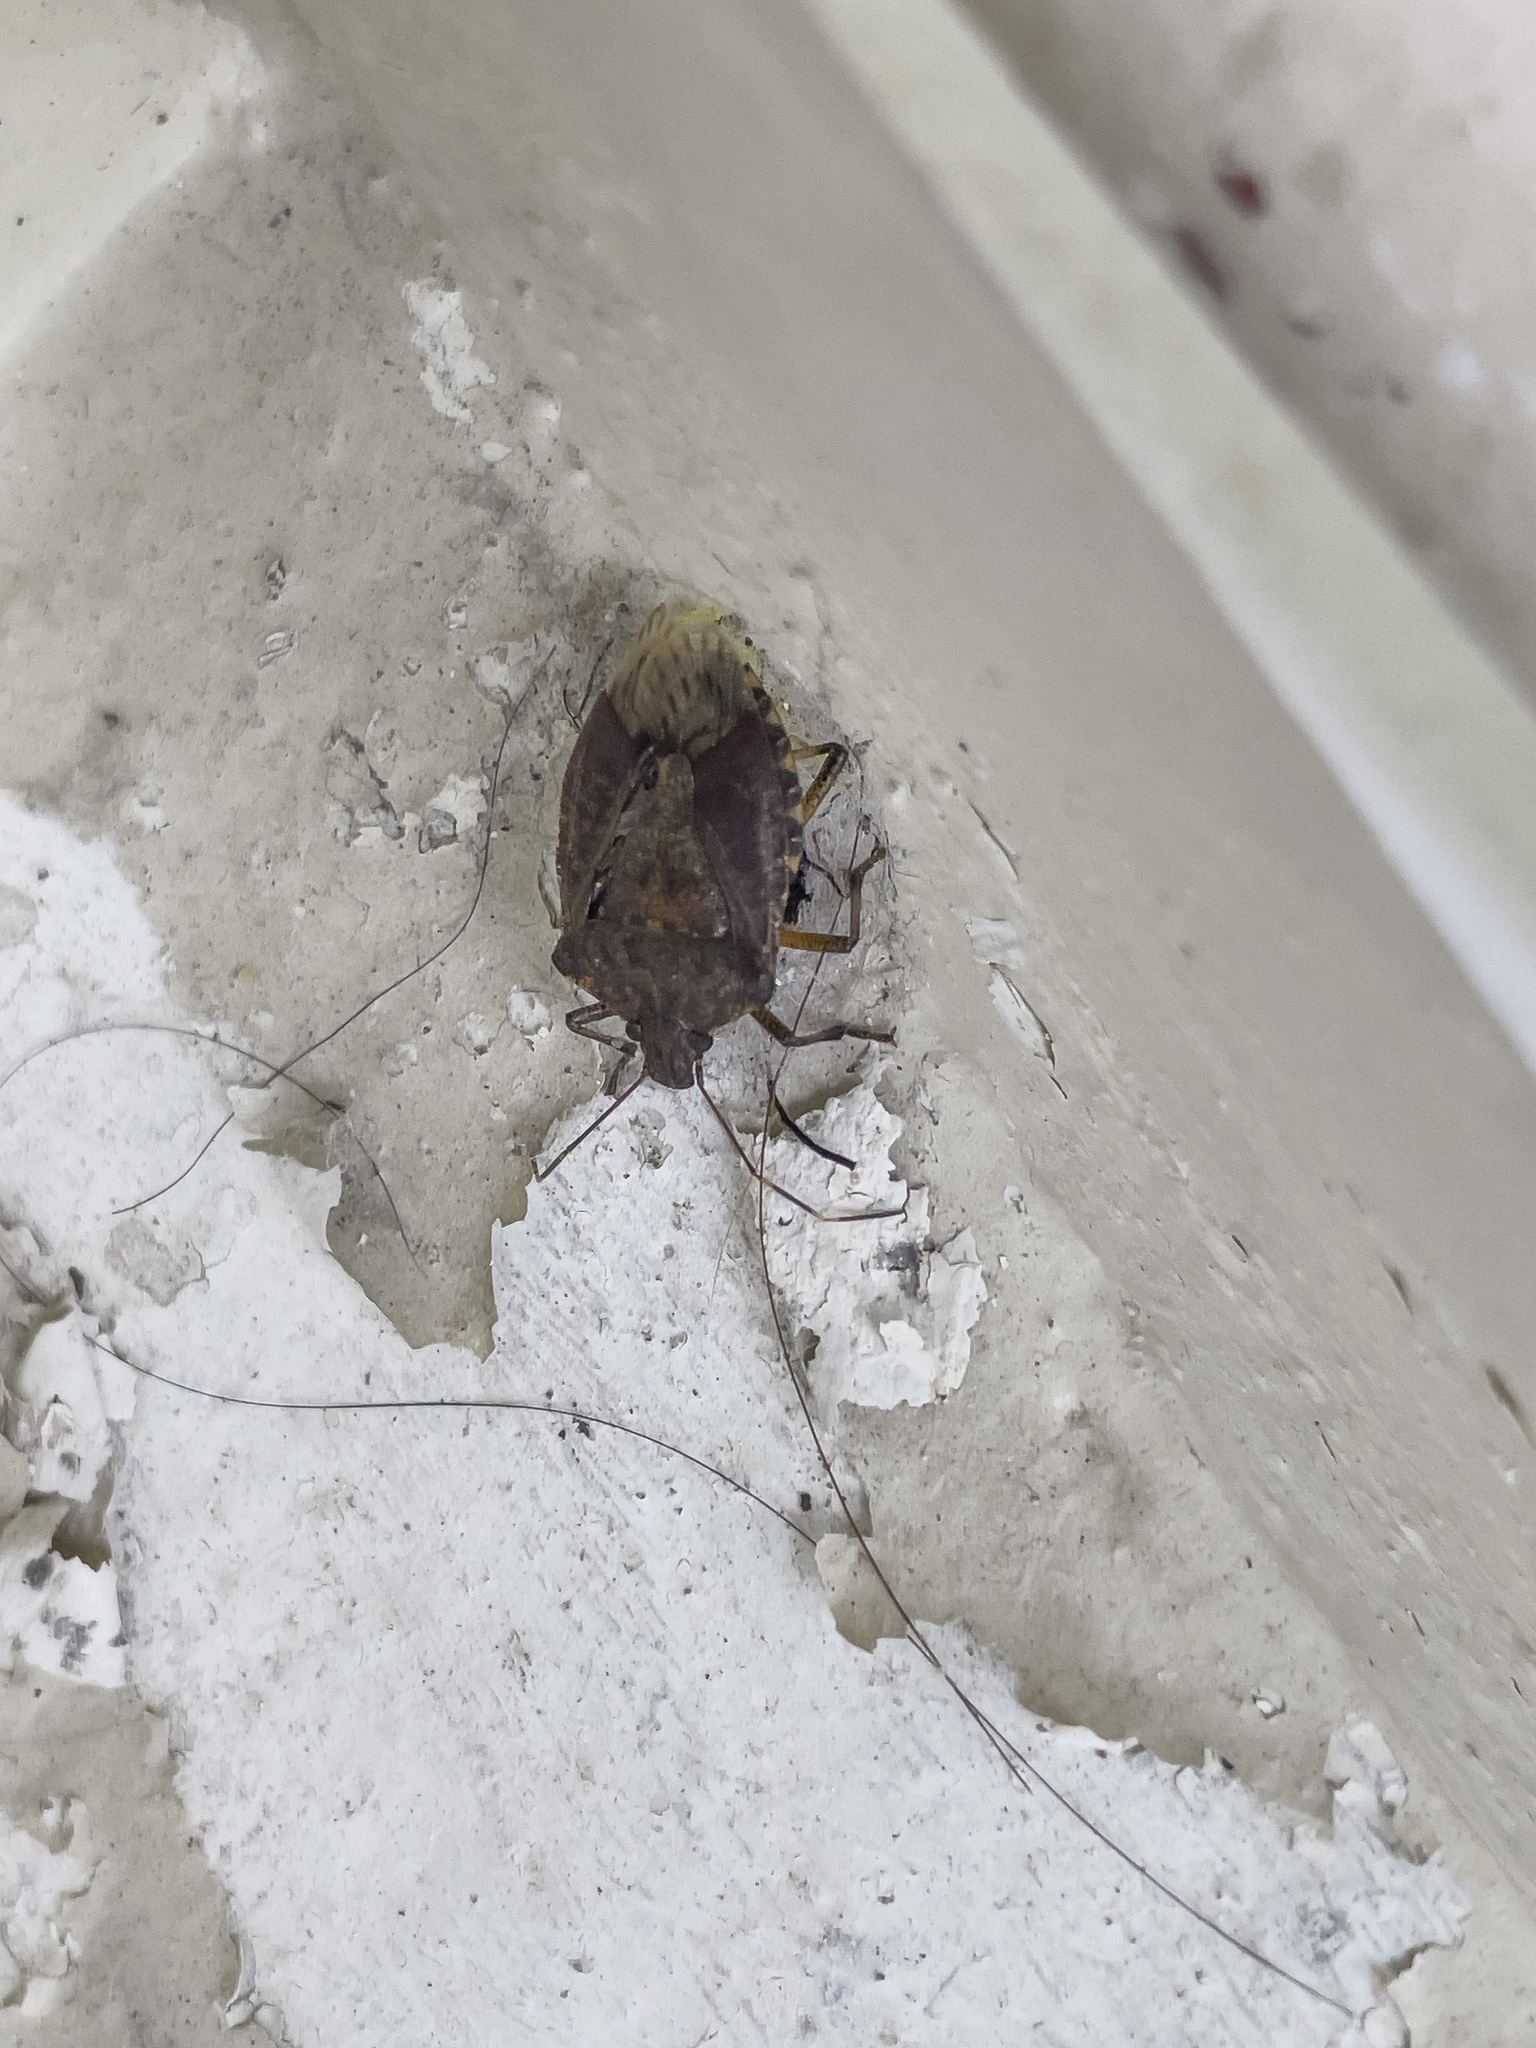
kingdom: Animalia
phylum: Arthropoda
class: Insecta
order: Hemiptera
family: Pentatomidae
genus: Halyomorpha
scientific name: Halyomorpha halys
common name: Brown marmorated stink bug
